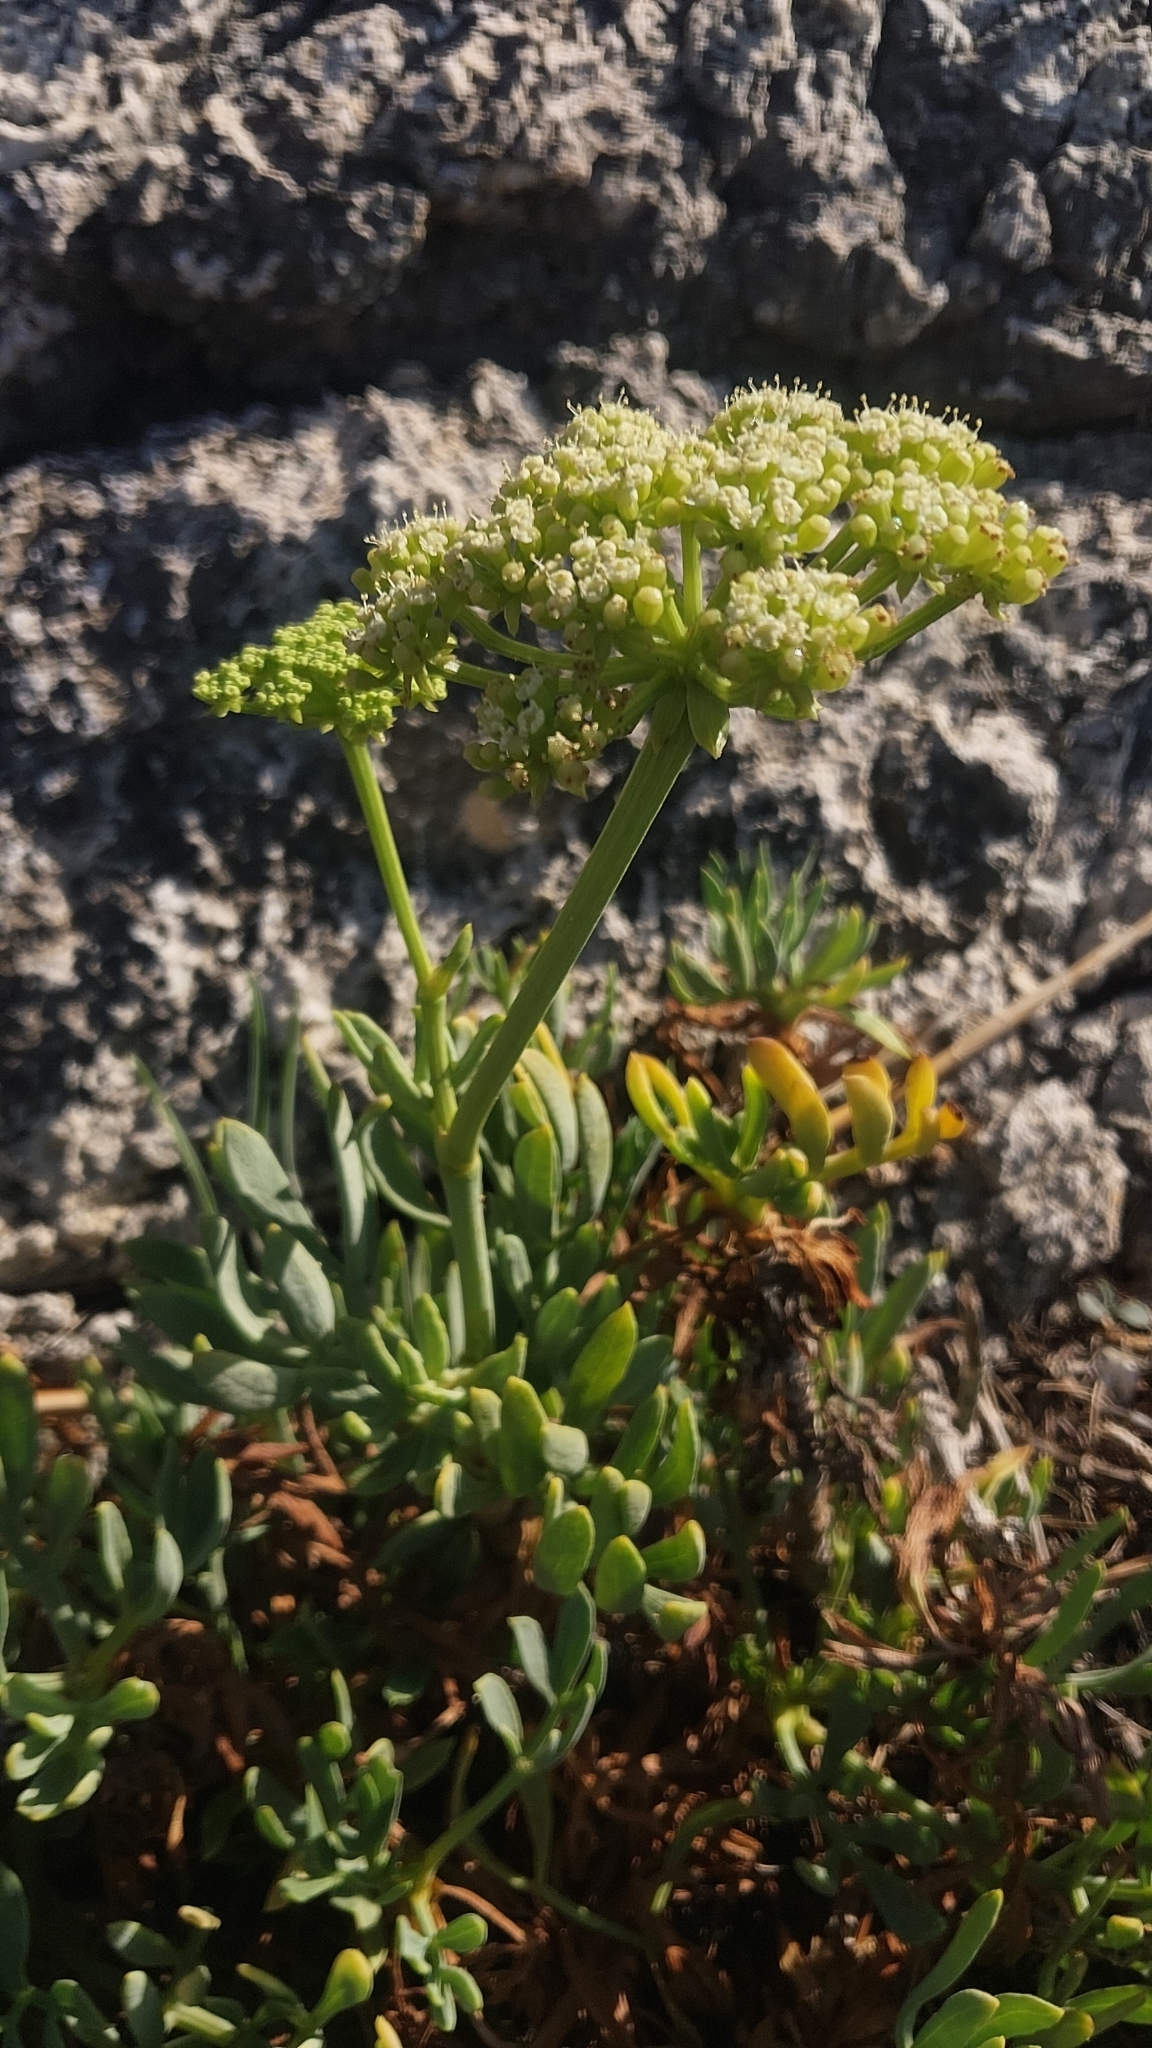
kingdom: Plantae
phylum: Tracheophyta
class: Magnoliopsida
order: Apiales
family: Apiaceae
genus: Crithmum
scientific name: Crithmum maritimum
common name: Rock samphire
